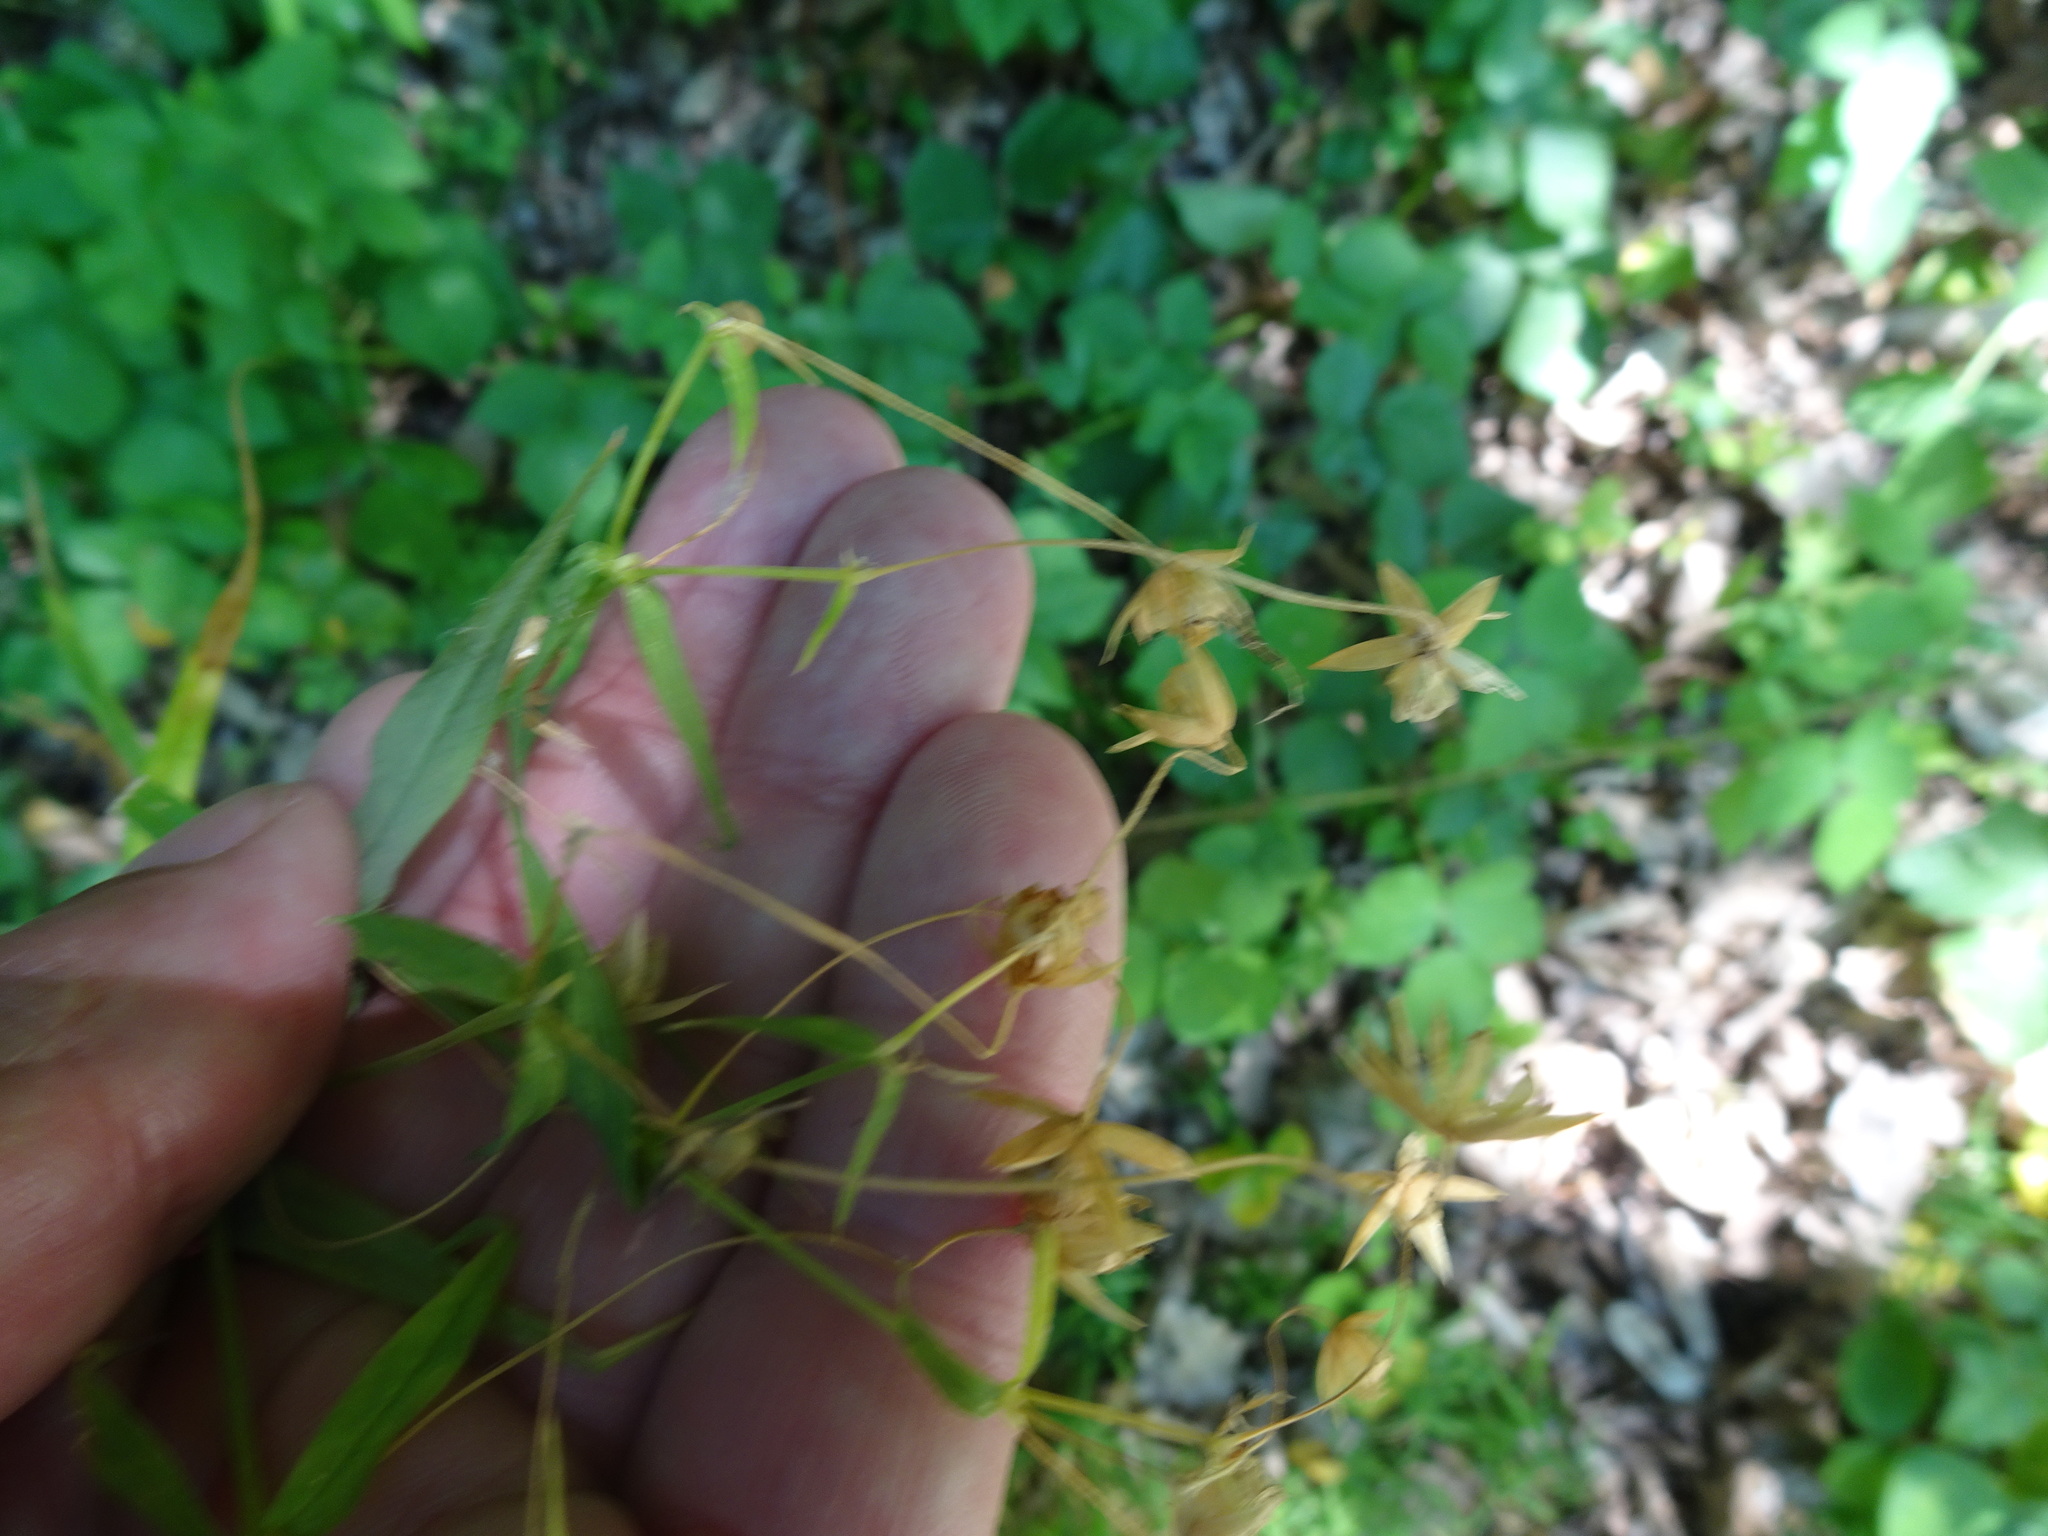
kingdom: Plantae
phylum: Tracheophyta
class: Magnoliopsida
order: Caryophyllales
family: Caryophyllaceae
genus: Rabelera
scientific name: Rabelera holostea
